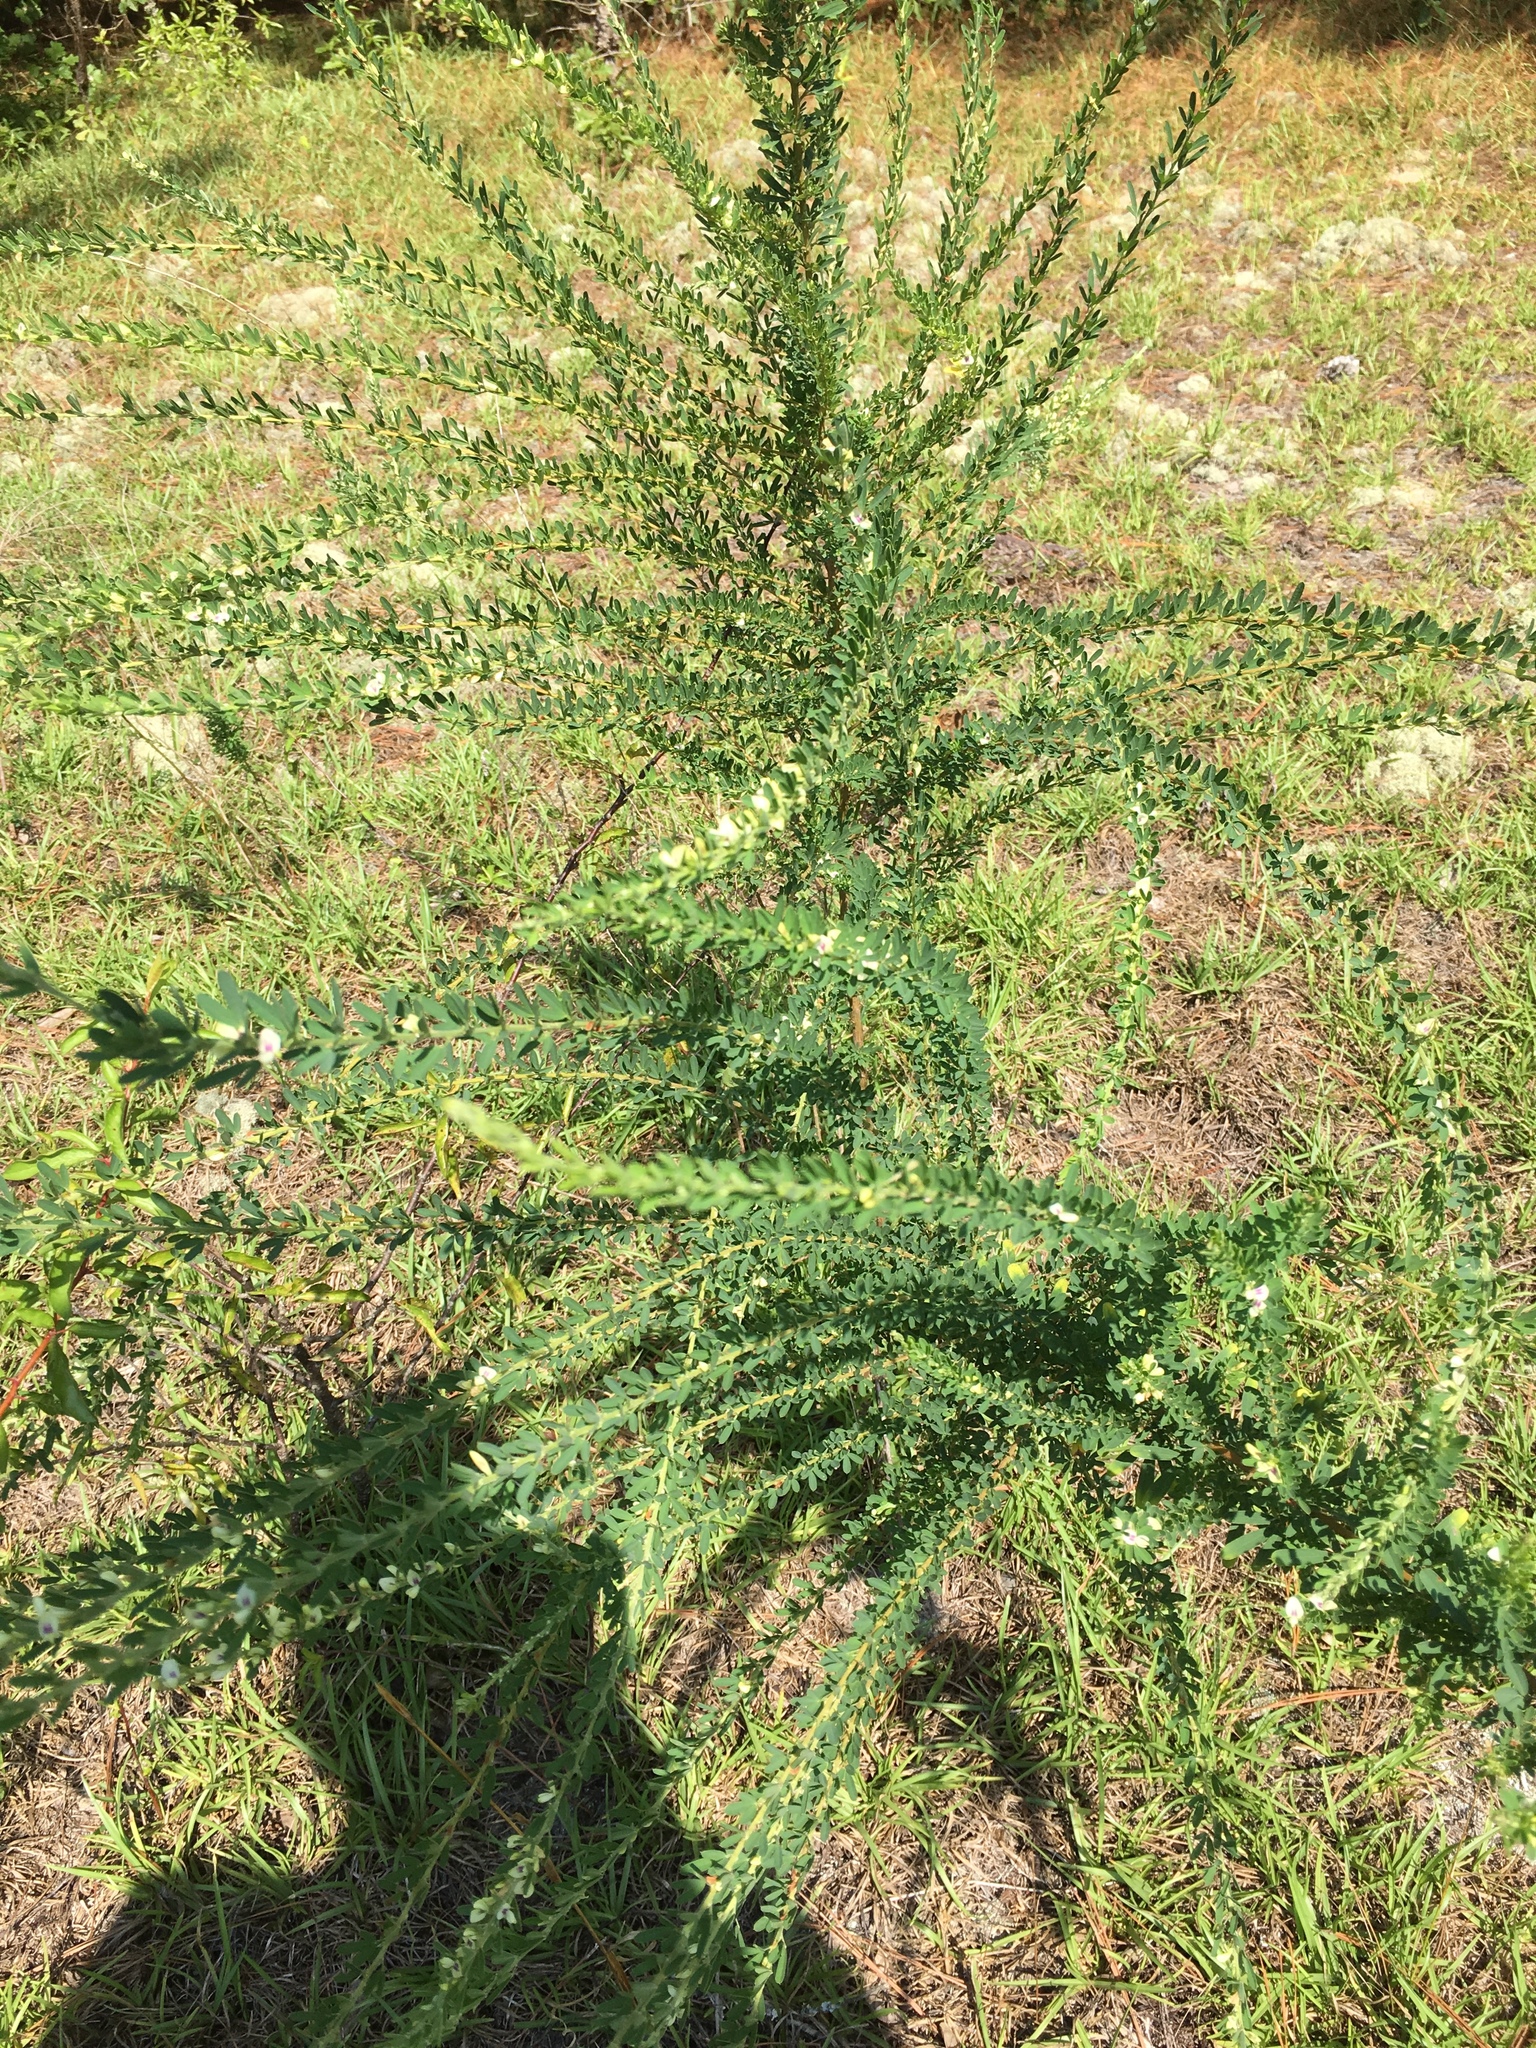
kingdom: Plantae
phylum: Tracheophyta
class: Magnoliopsida
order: Fabales
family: Fabaceae
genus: Lespedeza
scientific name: Lespedeza cuneata
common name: Chinese bush-clover
